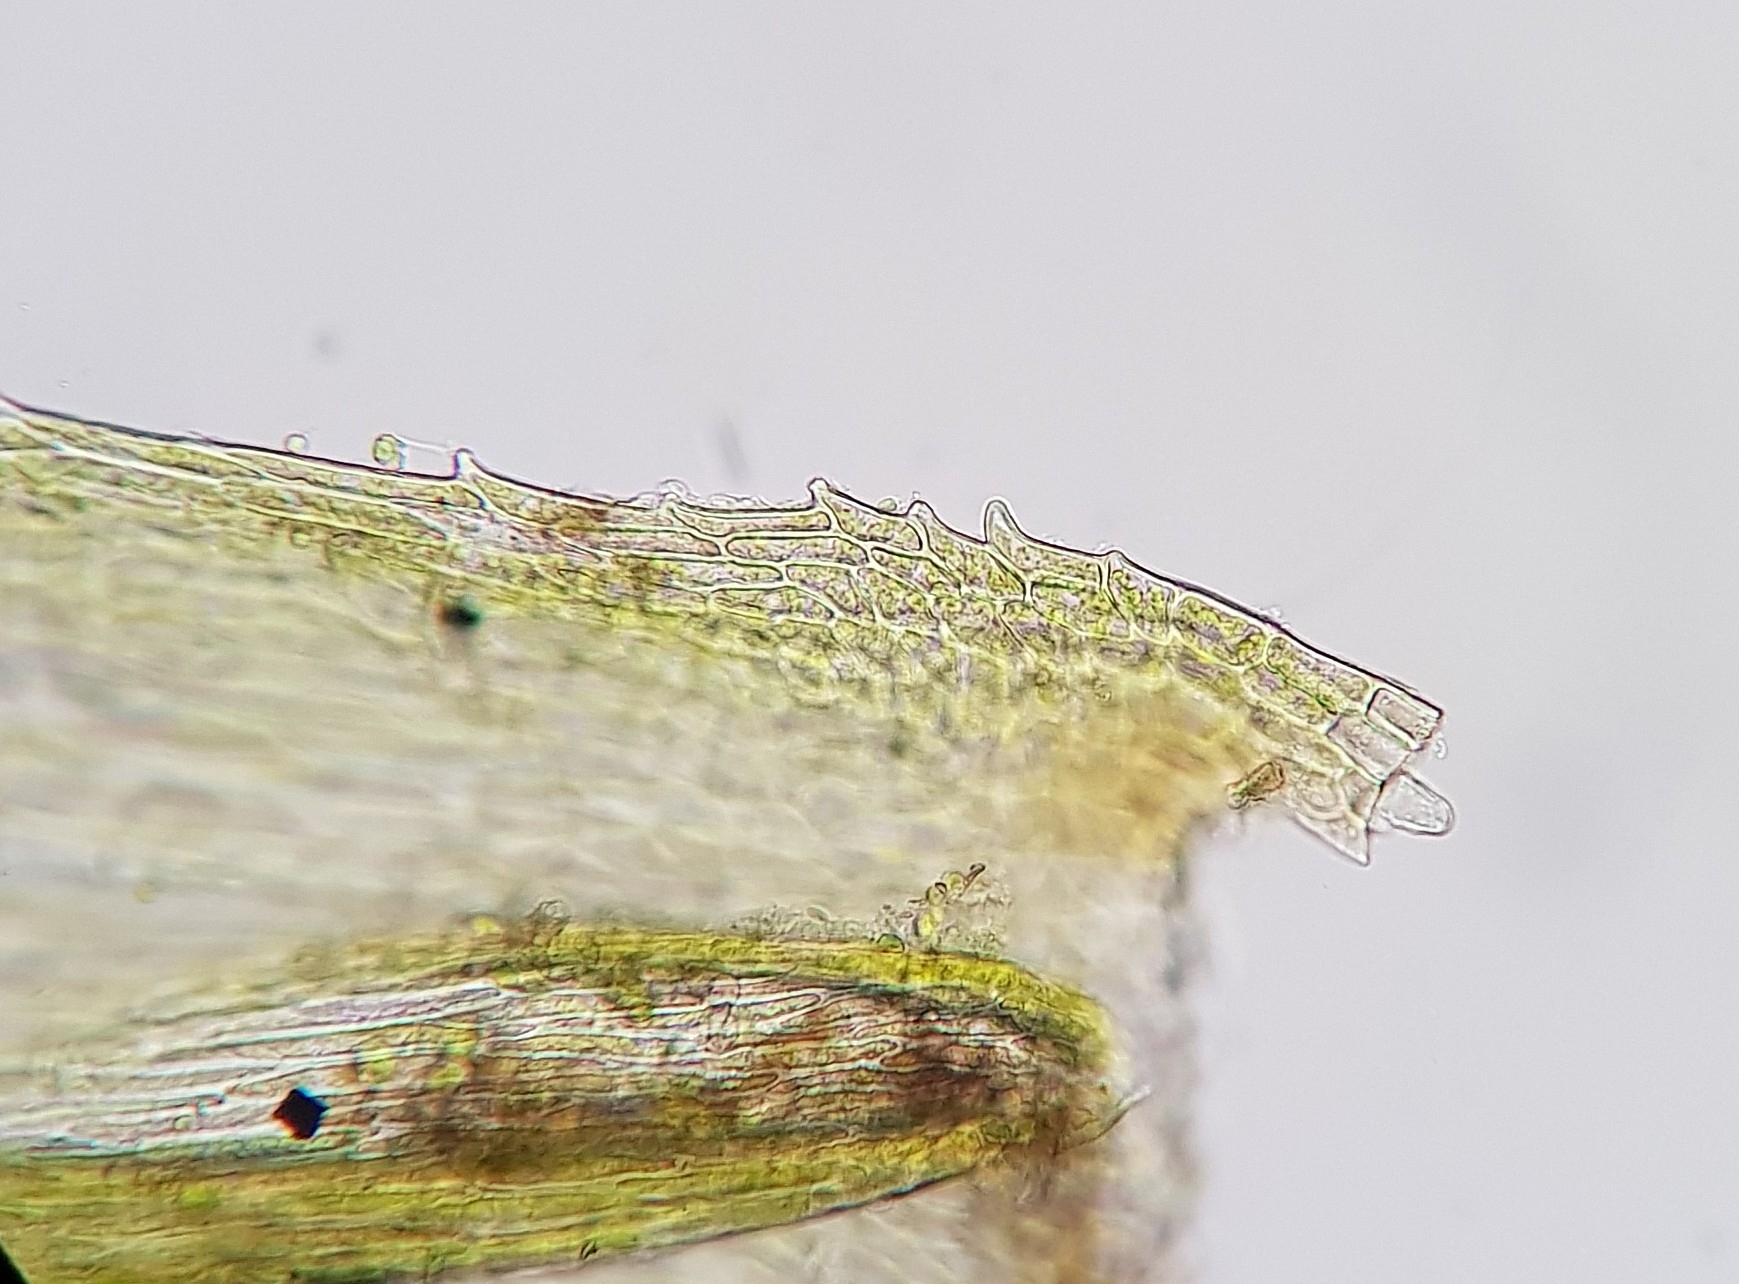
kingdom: Plantae
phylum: Bryophyta
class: Bryopsida
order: Hypnales
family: Brachytheciaceae
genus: Homalothecium
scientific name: Homalothecium sericeum
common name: Silky wall feather-moss
